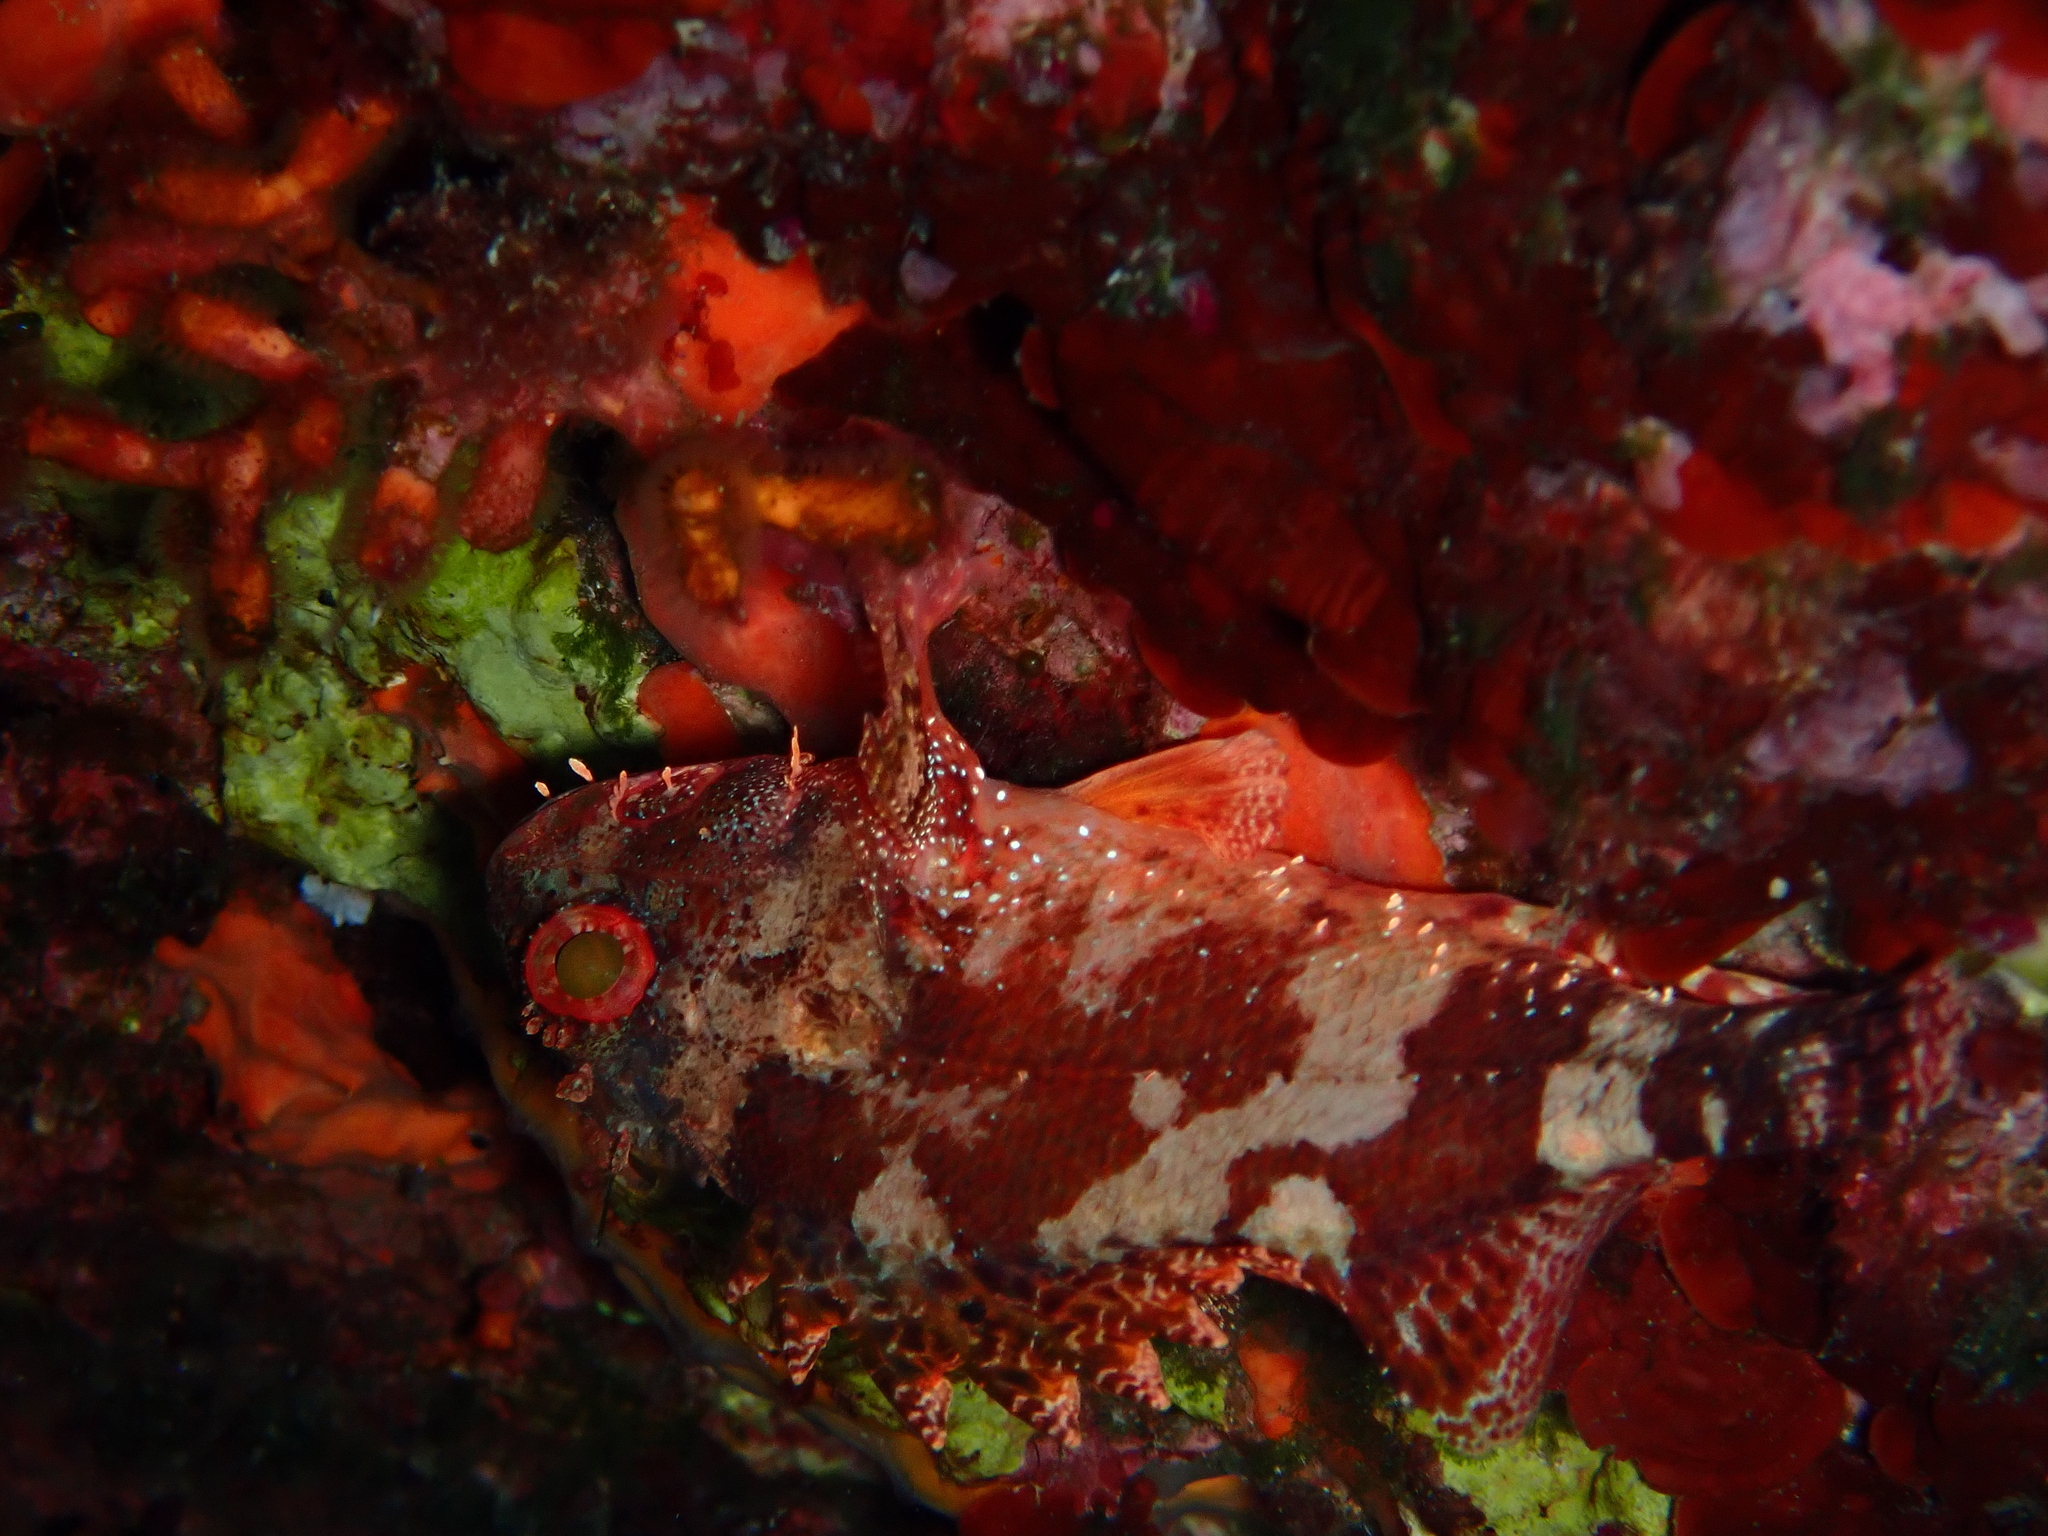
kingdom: Animalia
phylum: Chordata
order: Scorpaeniformes
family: Scorpaenidae
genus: Scorpaena
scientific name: Scorpaena maderensis
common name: Madeira rockfish
